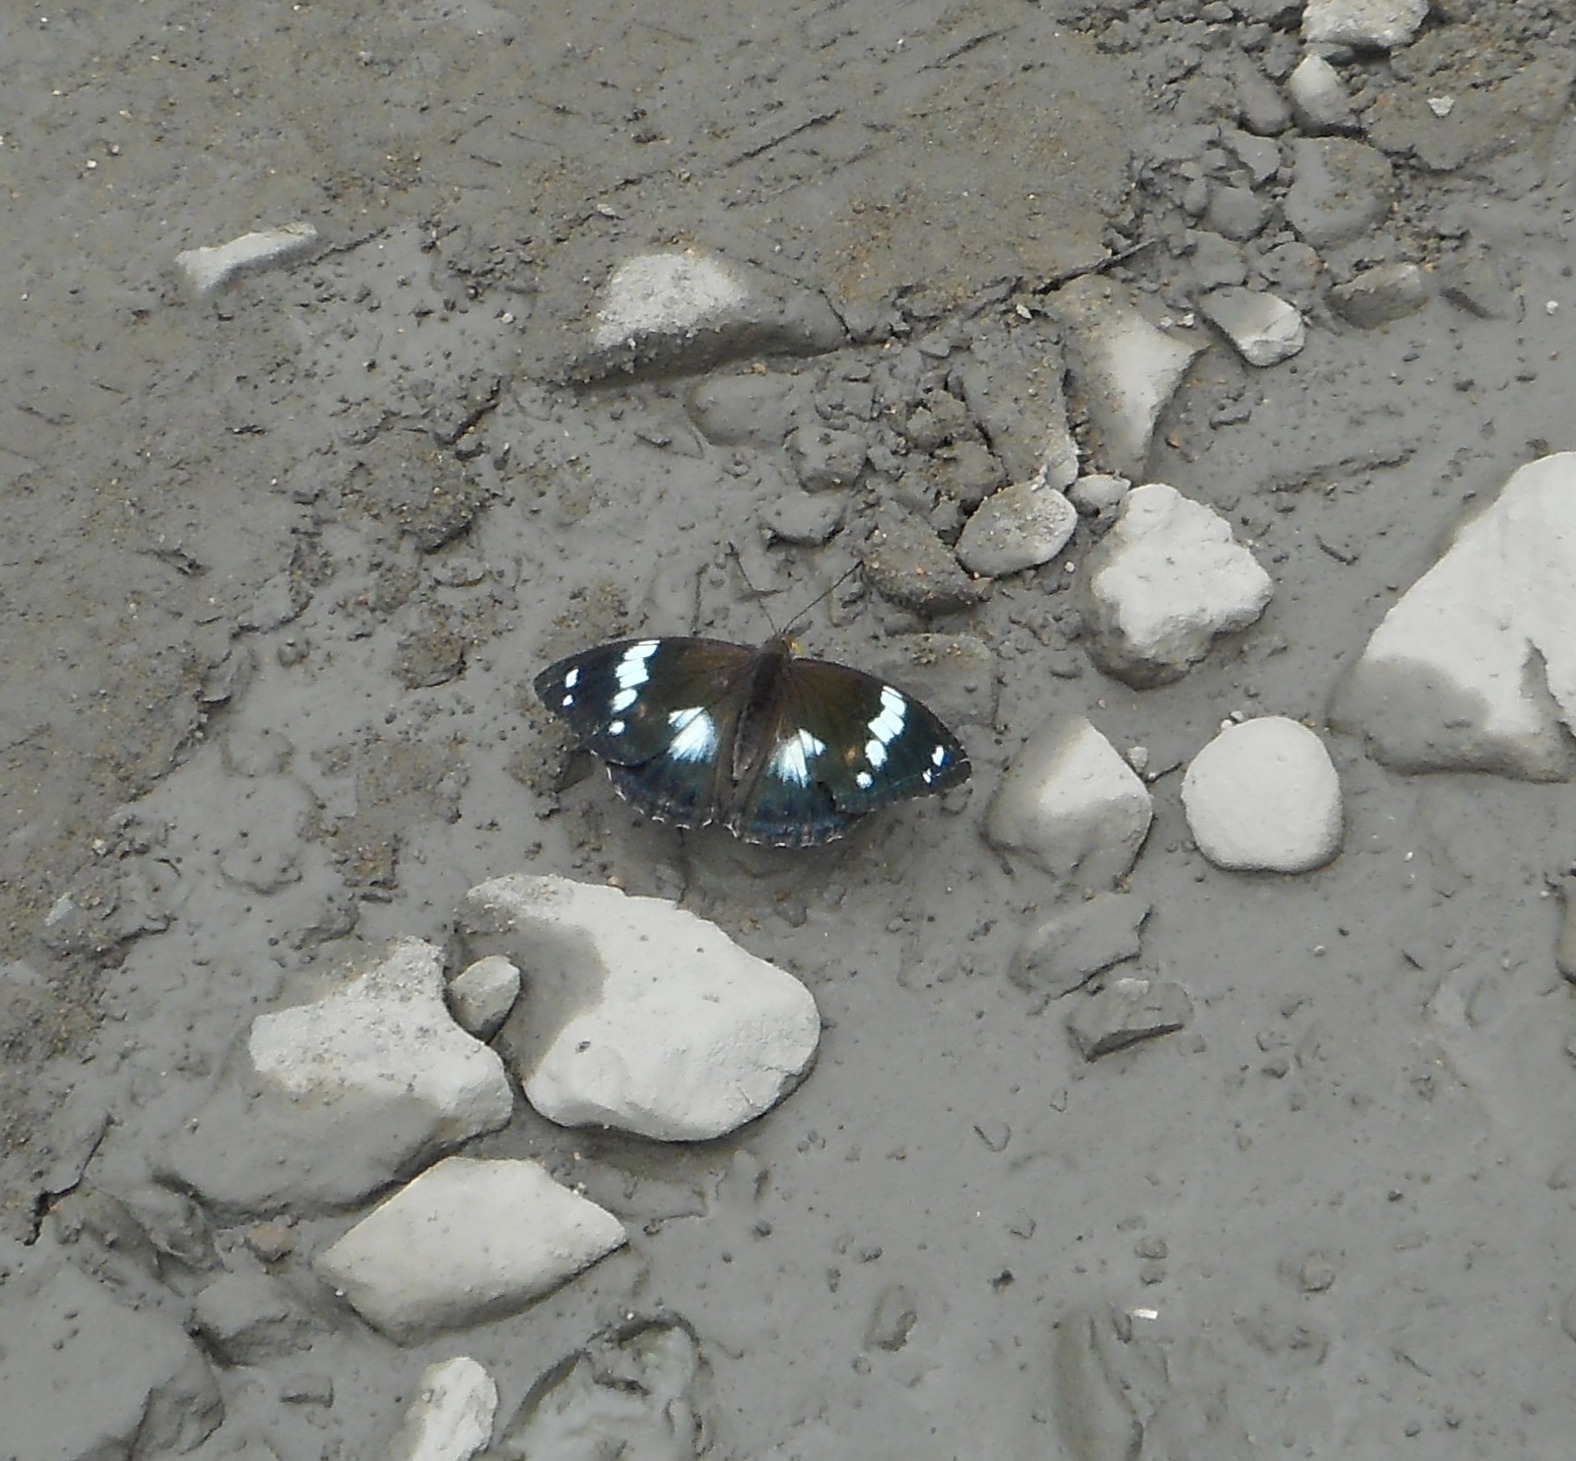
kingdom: Animalia
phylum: Arthropoda
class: Insecta
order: Lepidoptera
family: Nymphalidae
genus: Apatura
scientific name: Apatura Mimathyma schrencki
